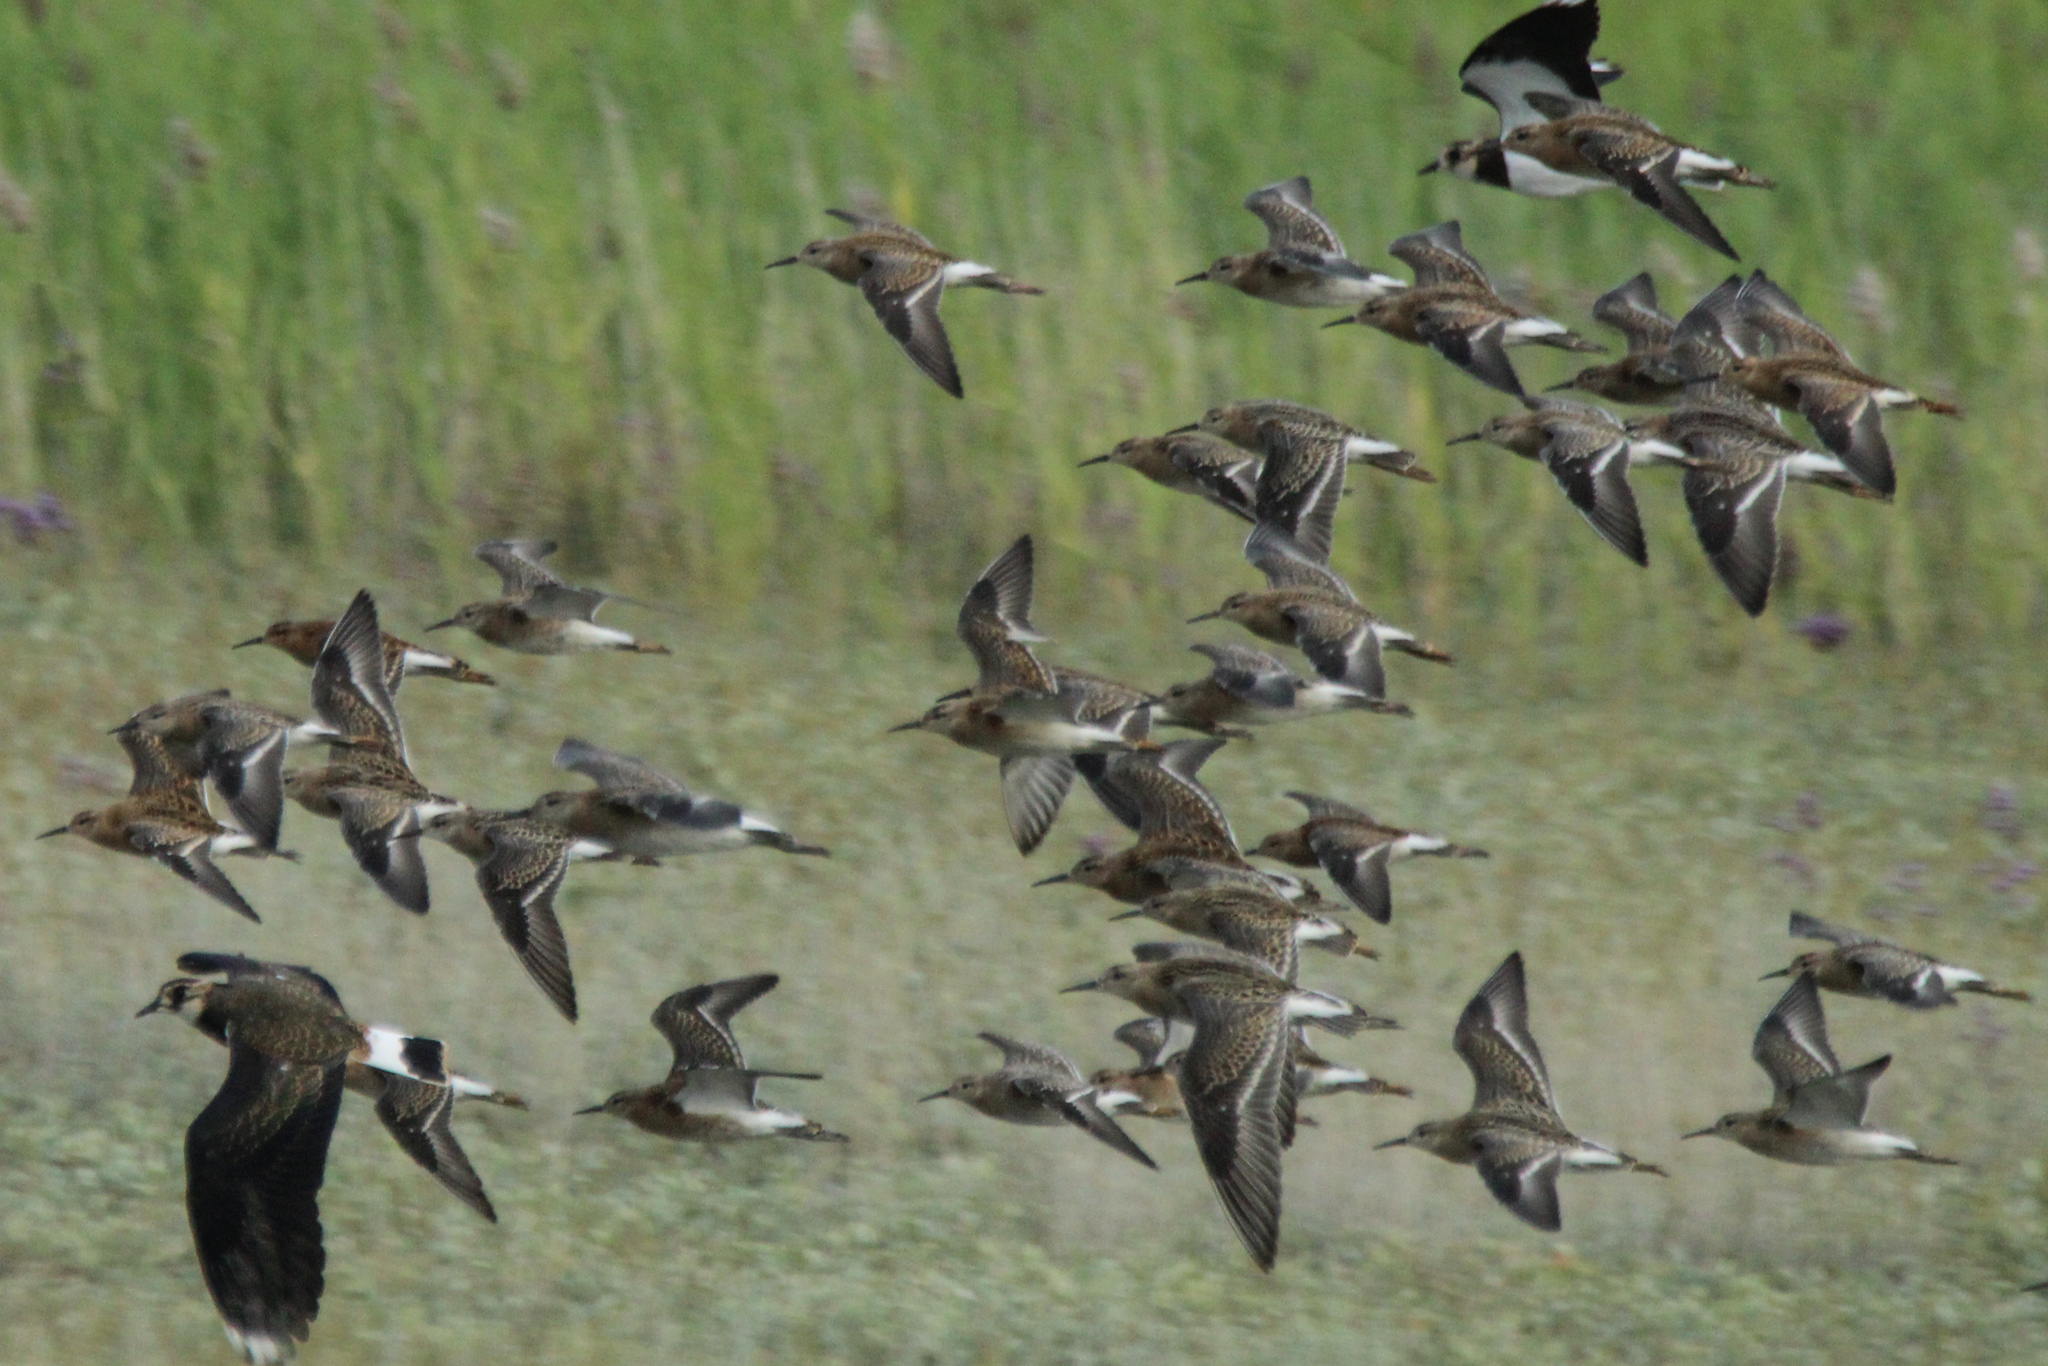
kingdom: Animalia
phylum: Chordata
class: Aves
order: Charadriiformes
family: Scolopacidae
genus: Calidris
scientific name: Calidris pugnax
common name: Ruff
